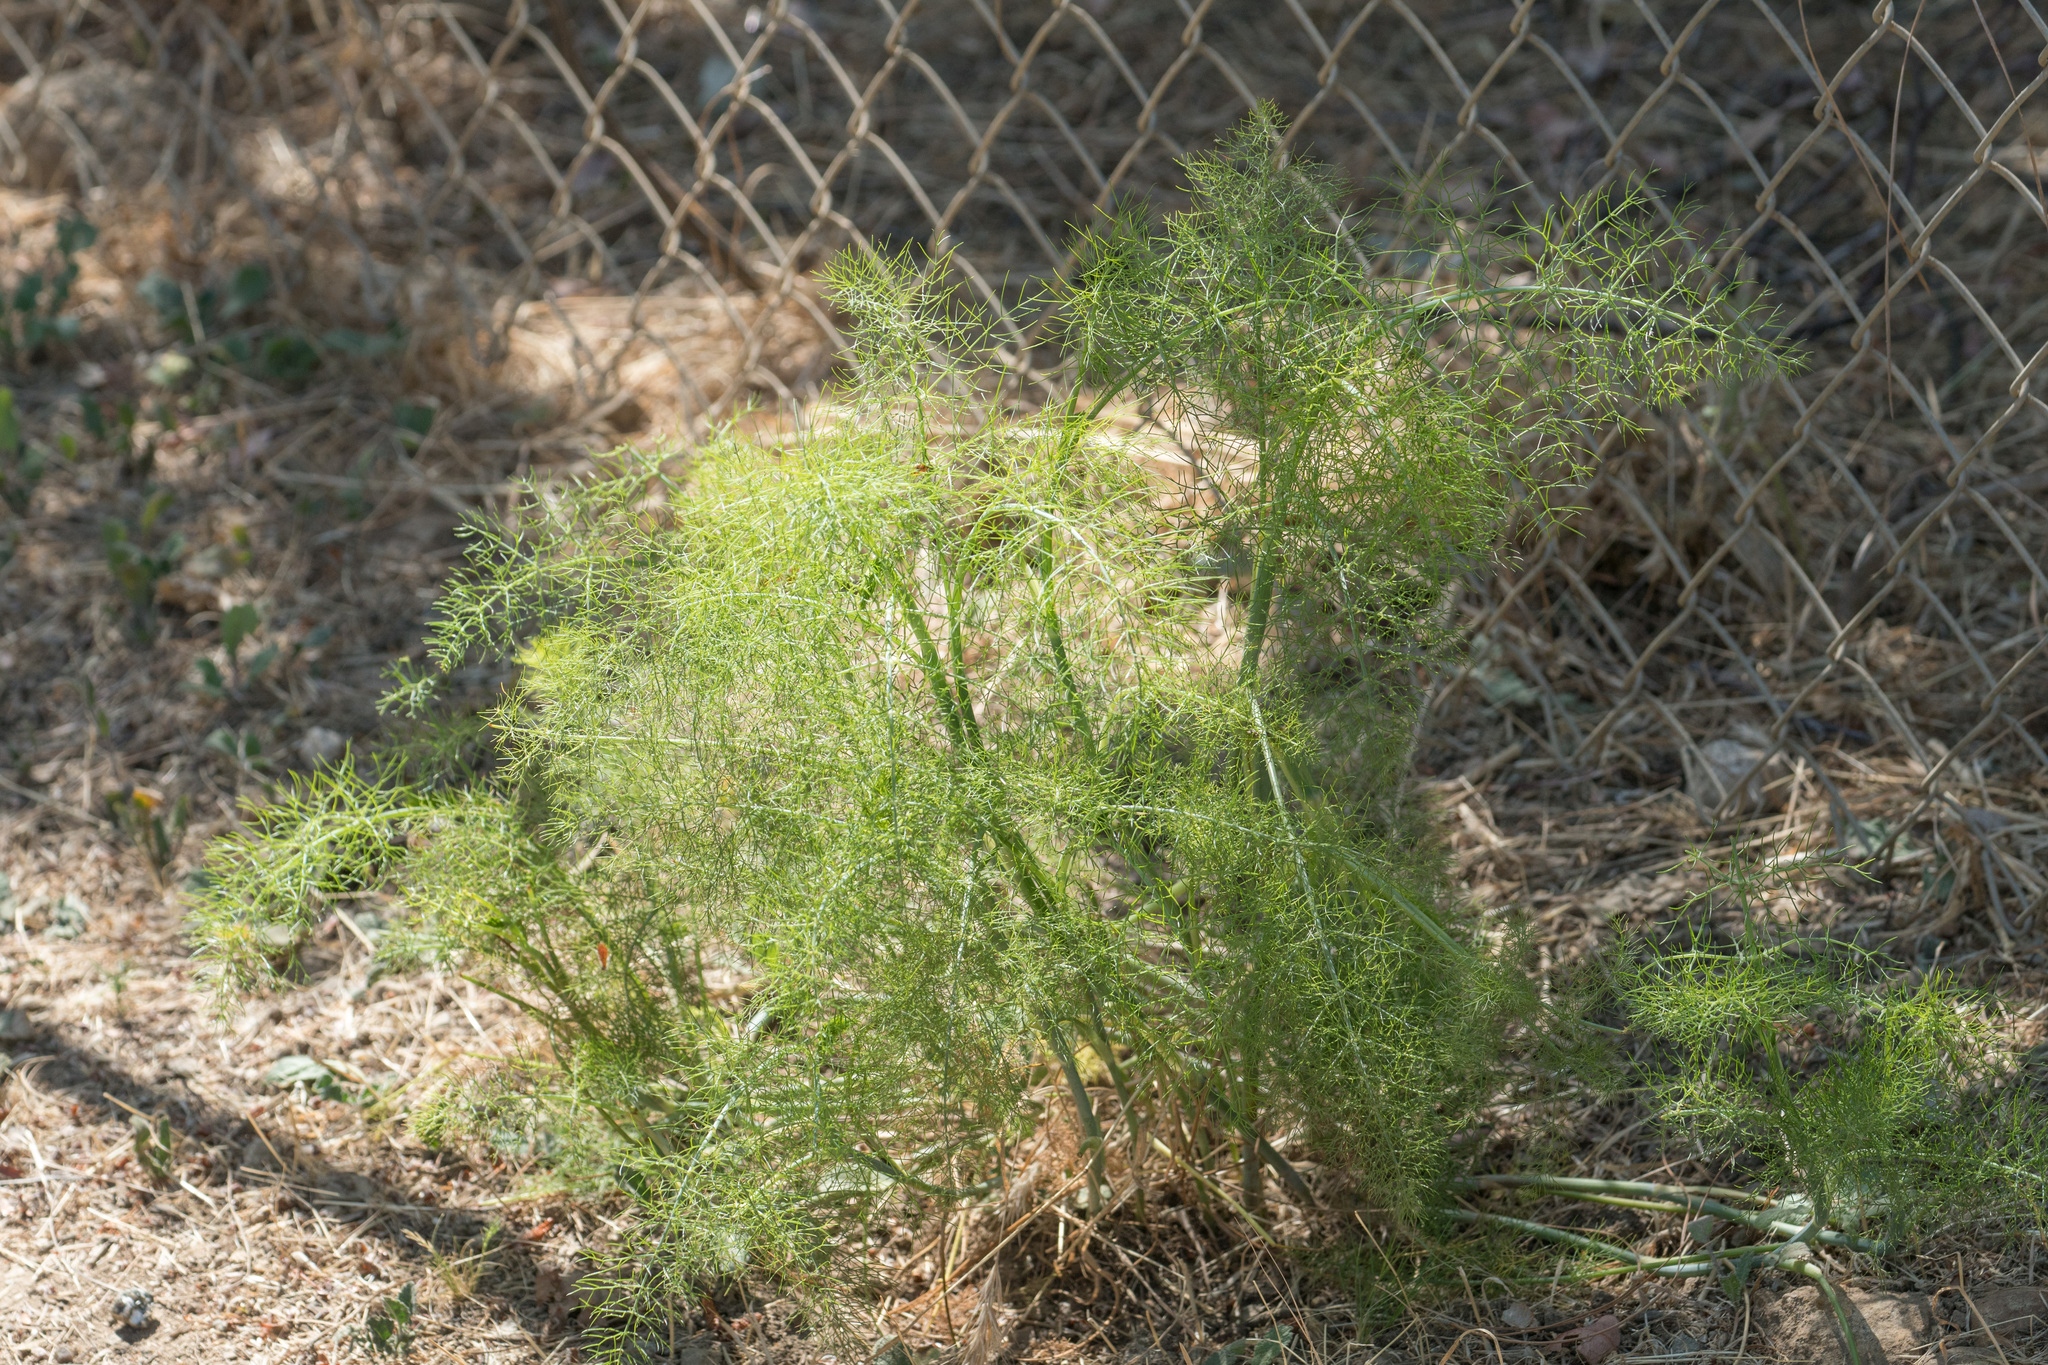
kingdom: Plantae
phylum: Tracheophyta
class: Magnoliopsida
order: Apiales
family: Apiaceae
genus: Foeniculum
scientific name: Foeniculum vulgare
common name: Fennel
